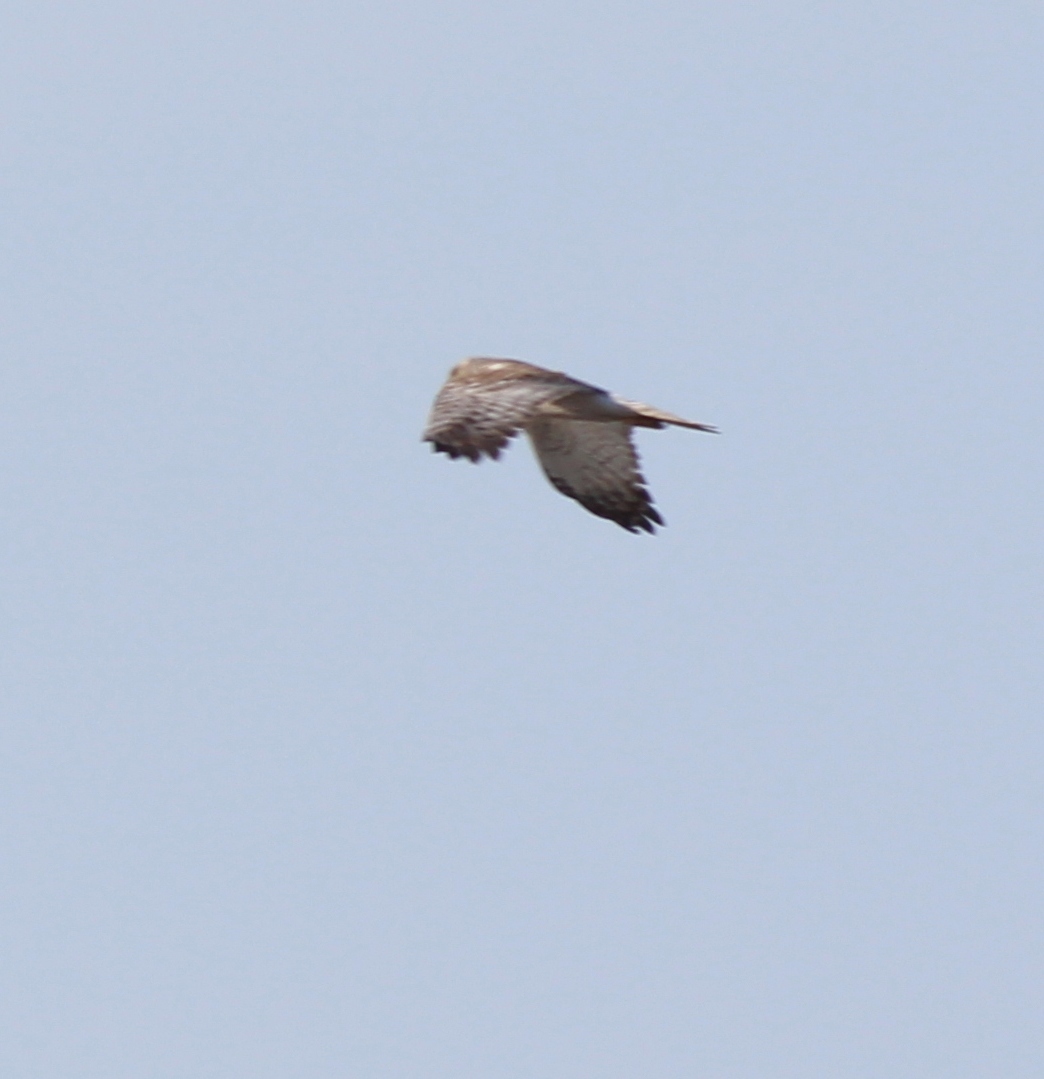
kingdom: Animalia
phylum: Chordata
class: Aves
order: Accipitriformes
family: Accipitridae
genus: Circus
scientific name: Circus spilonotus
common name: Eastern marsh-harrier
